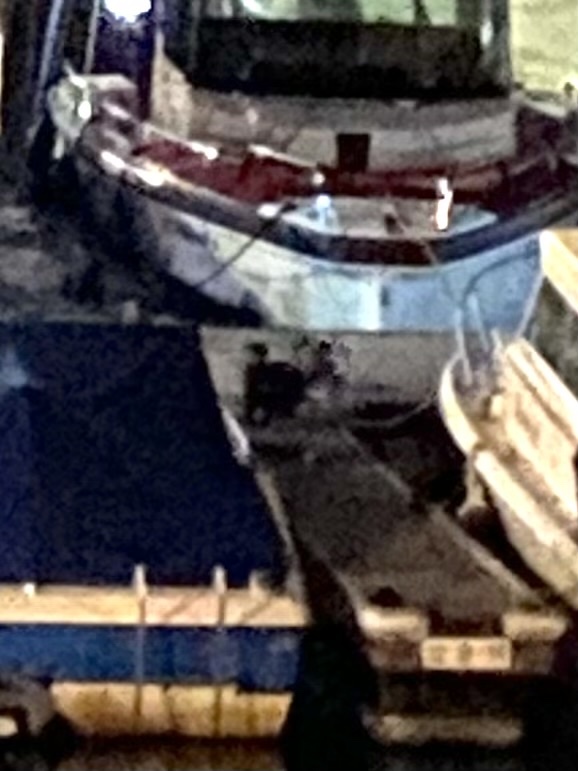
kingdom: Animalia
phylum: Chordata
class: Mammalia
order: Carnivora
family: Mustelidae
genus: Lontra
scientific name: Lontra canadensis
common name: North american river otter
